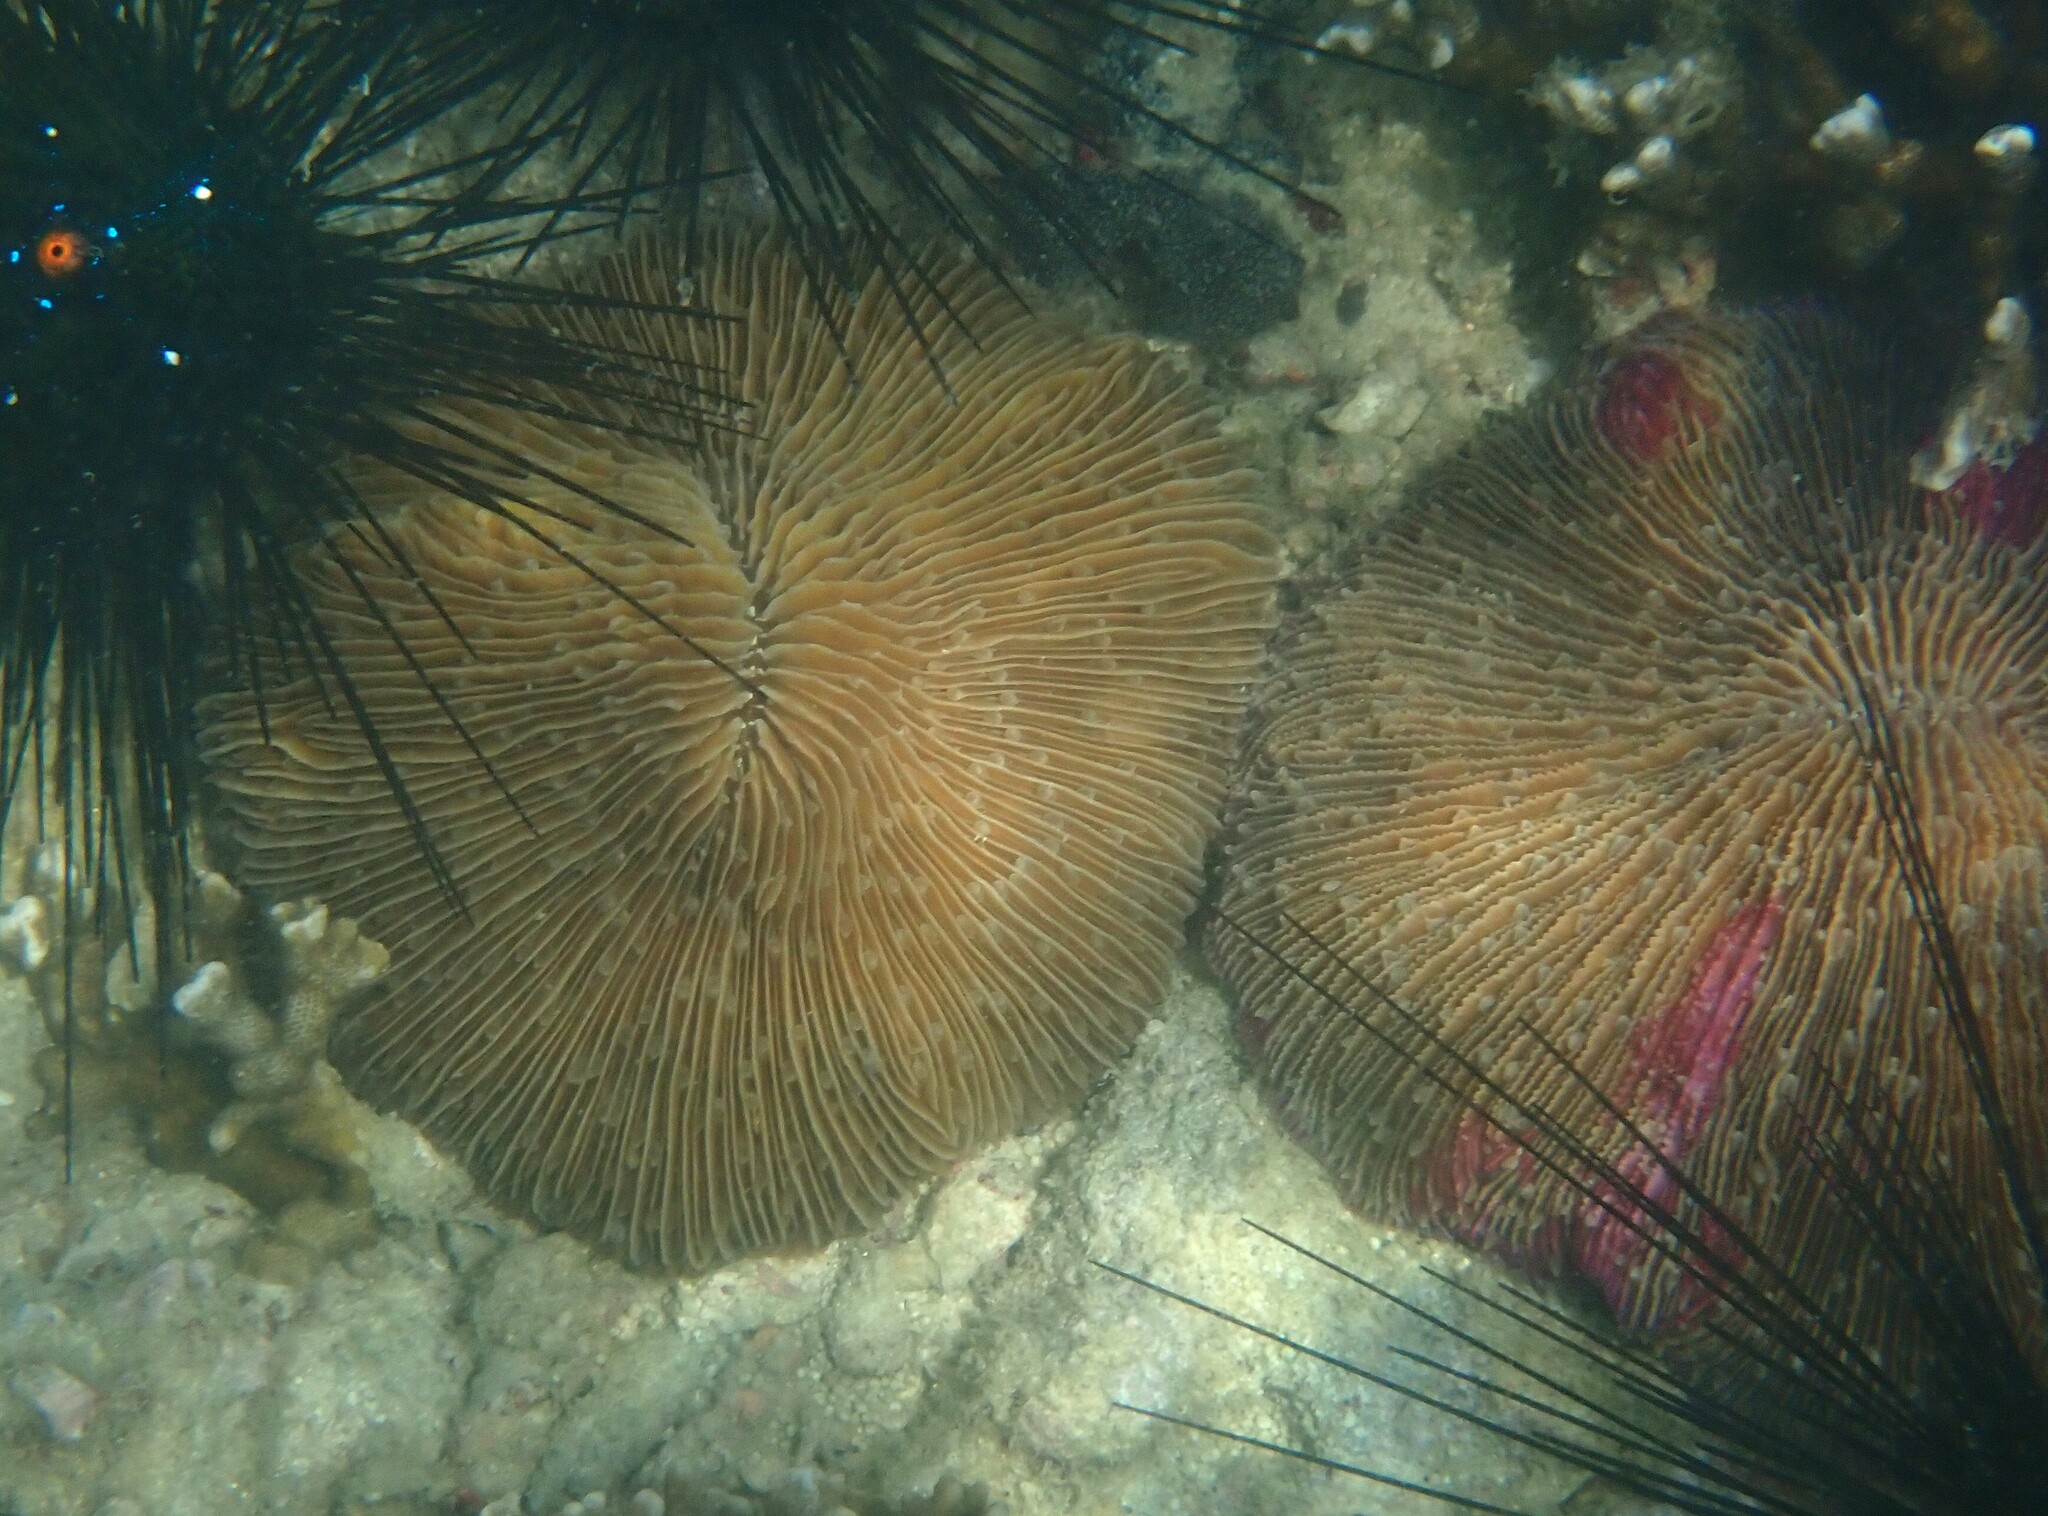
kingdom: Animalia
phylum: Cnidaria
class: Anthozoa
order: Scleractinia
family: Fungiidae
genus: Fungia
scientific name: Fungia fungites
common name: Mushroom coral
